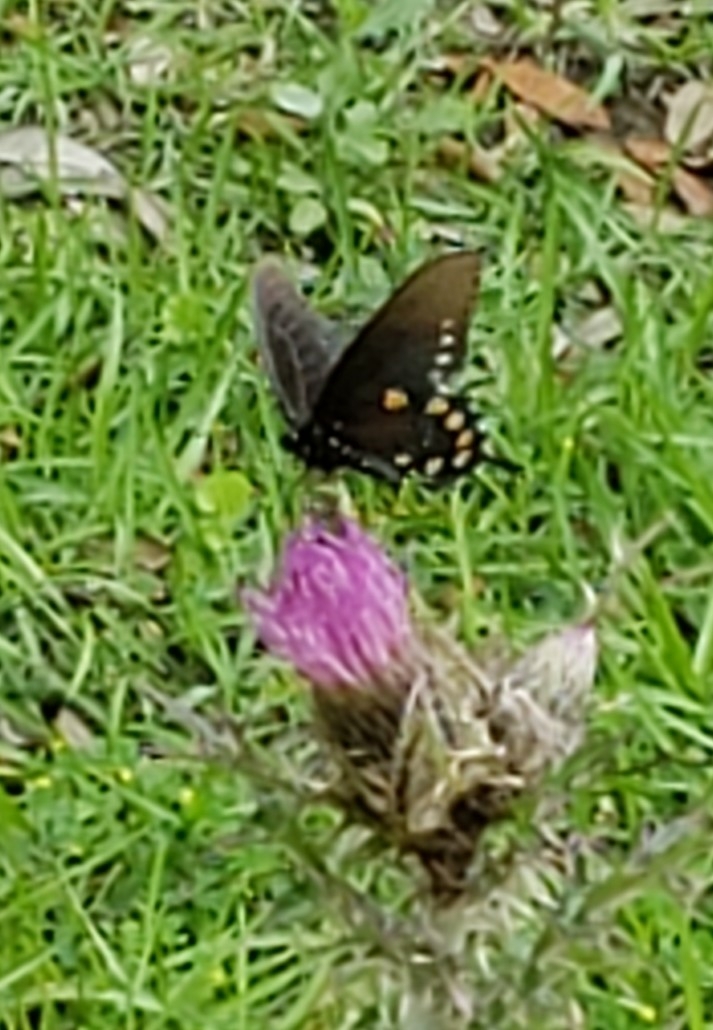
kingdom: Animalia
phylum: Arthropoda
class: Insecta
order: Lepidoptera
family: Papilionidae
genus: Battus
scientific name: Battus philenor
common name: Pipevine swallowtail
